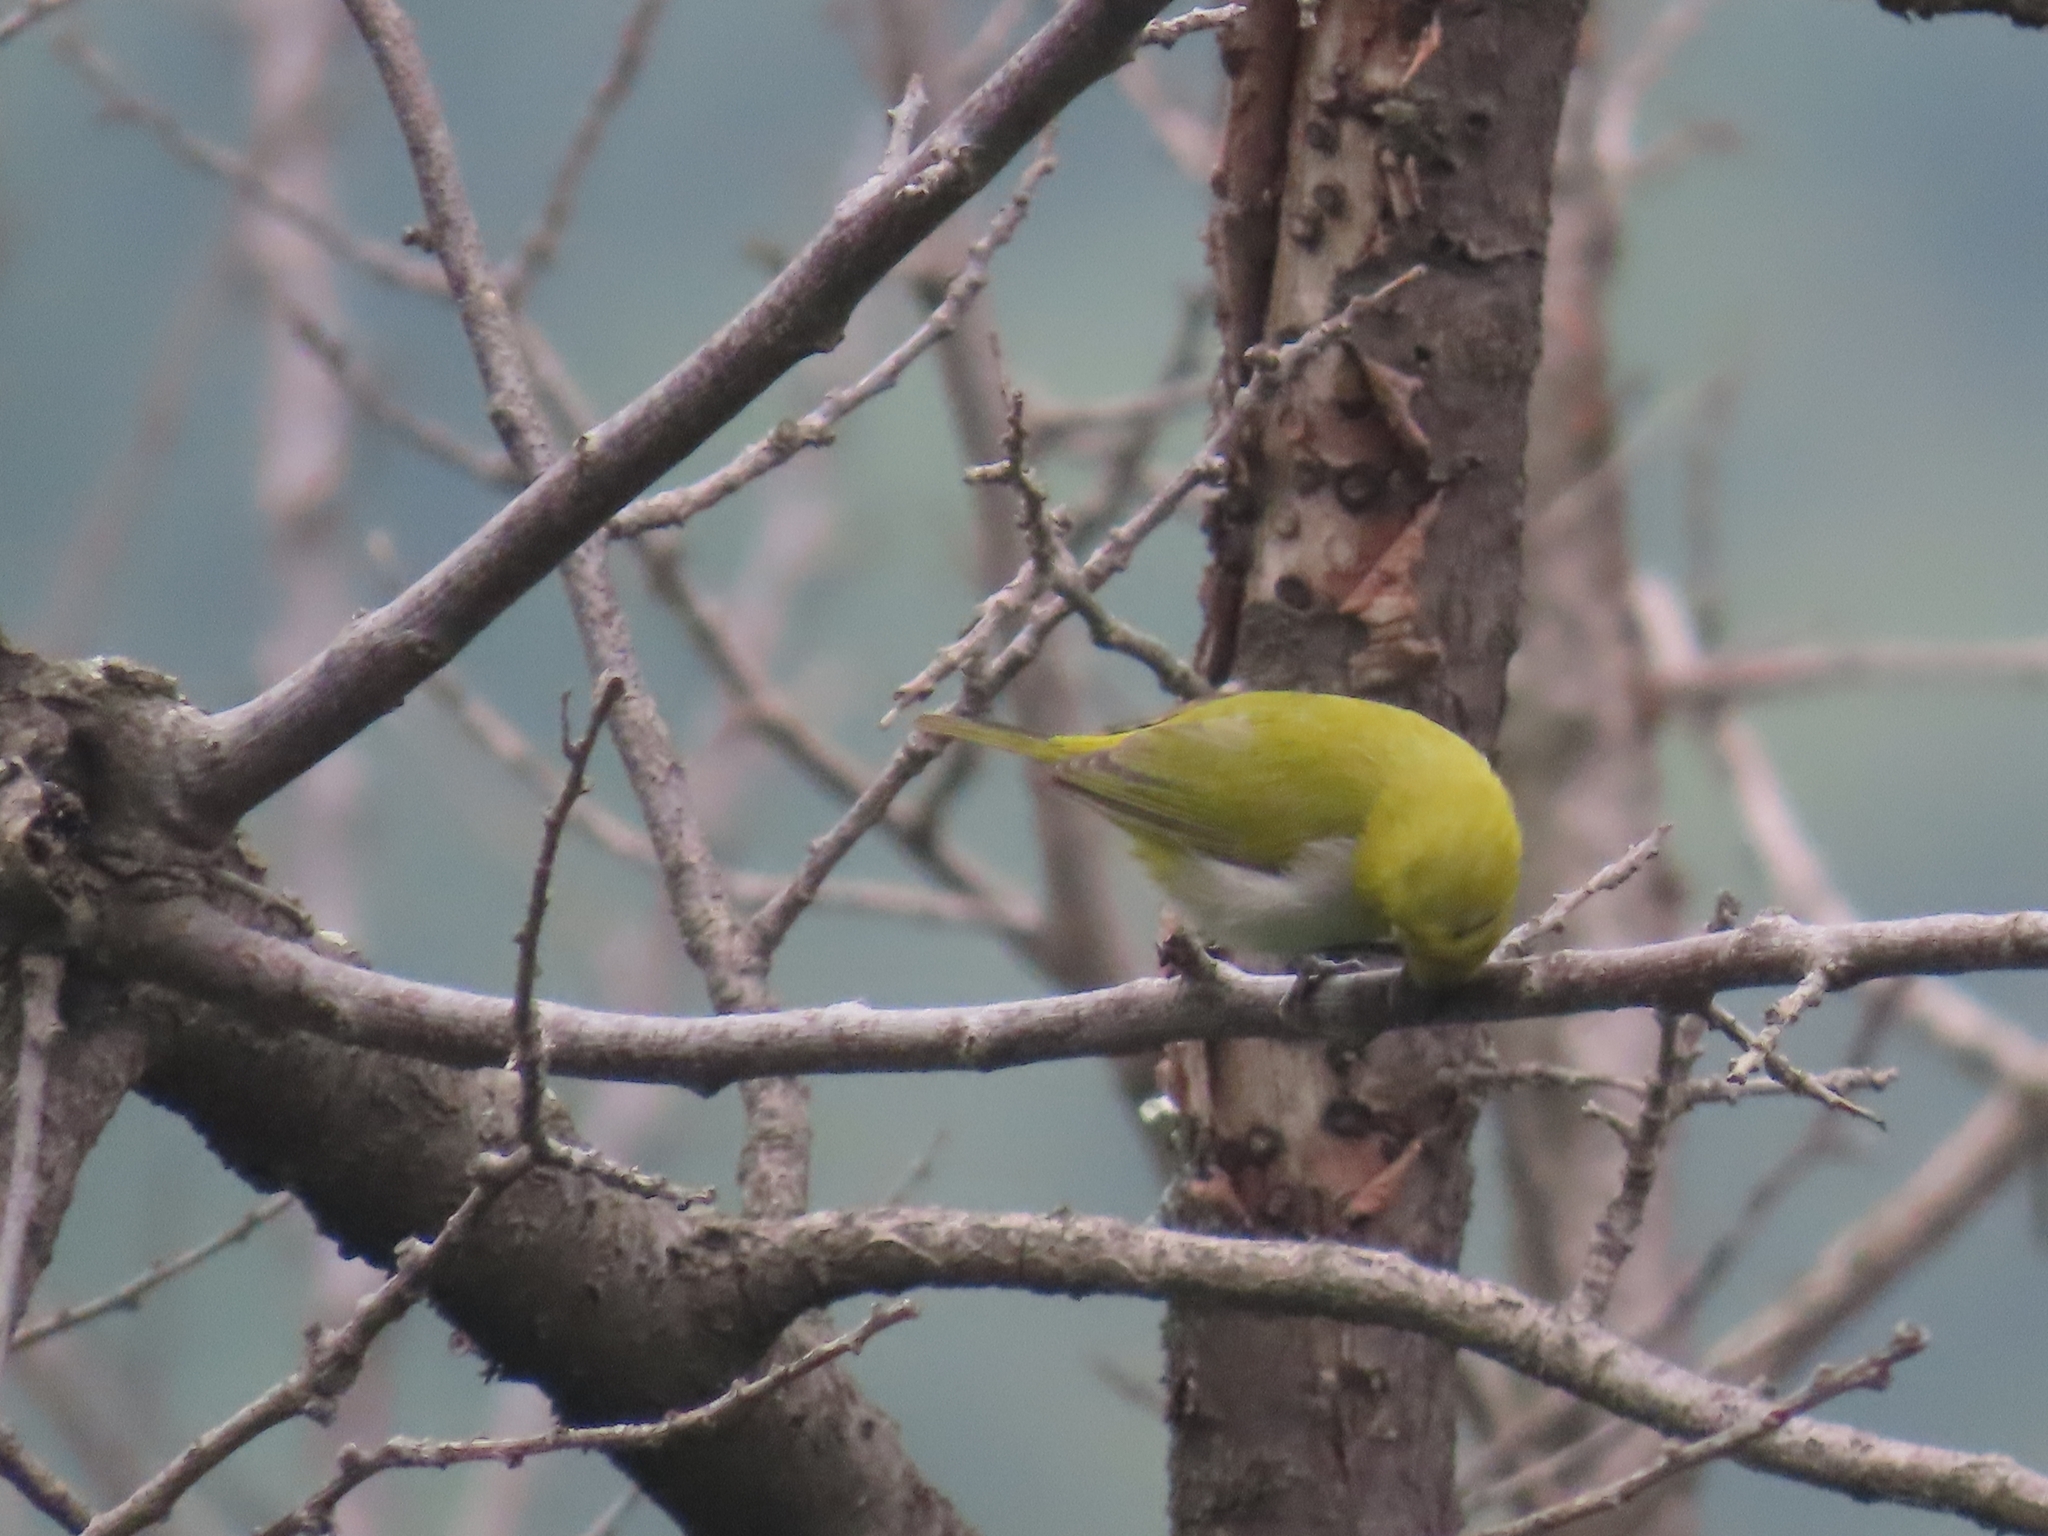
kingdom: Animalia
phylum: Chordata
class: Aves
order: Passeriformes
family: Zosteropidae
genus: Zosterops
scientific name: Zosterops palpebrosus
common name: Oriental white-eye
